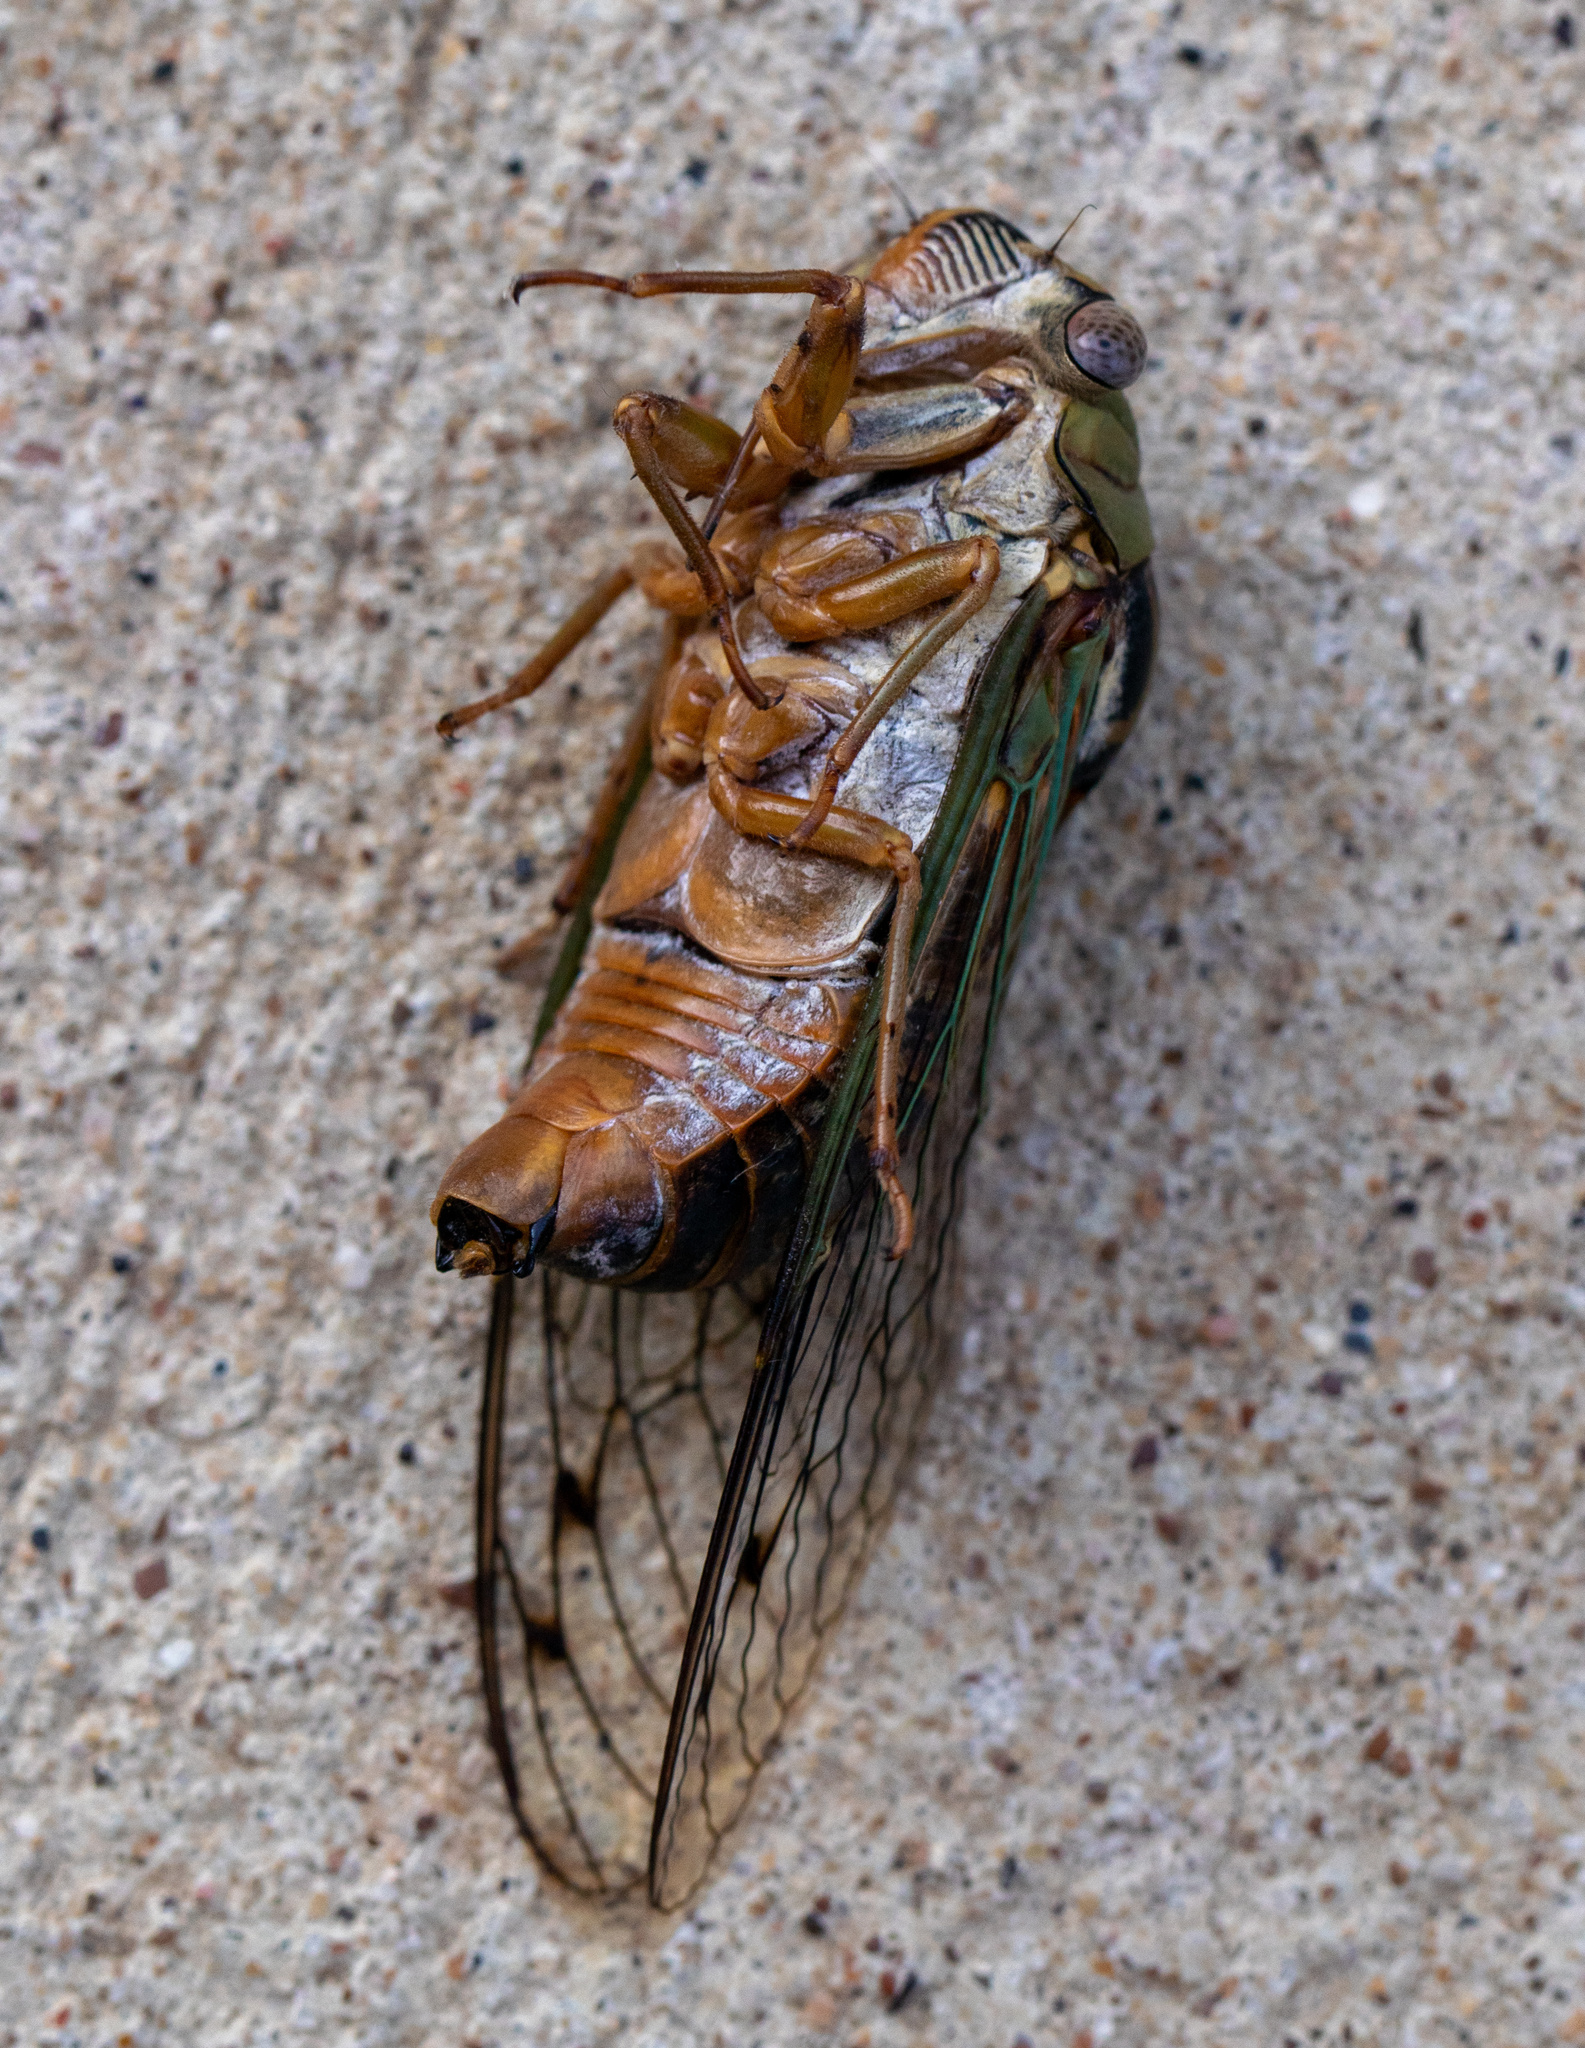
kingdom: Animalia
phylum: Arthropoda
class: Insecta
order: Hemiptera
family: Cicadidae
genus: Megatibicen
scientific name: Megatibicen resh
